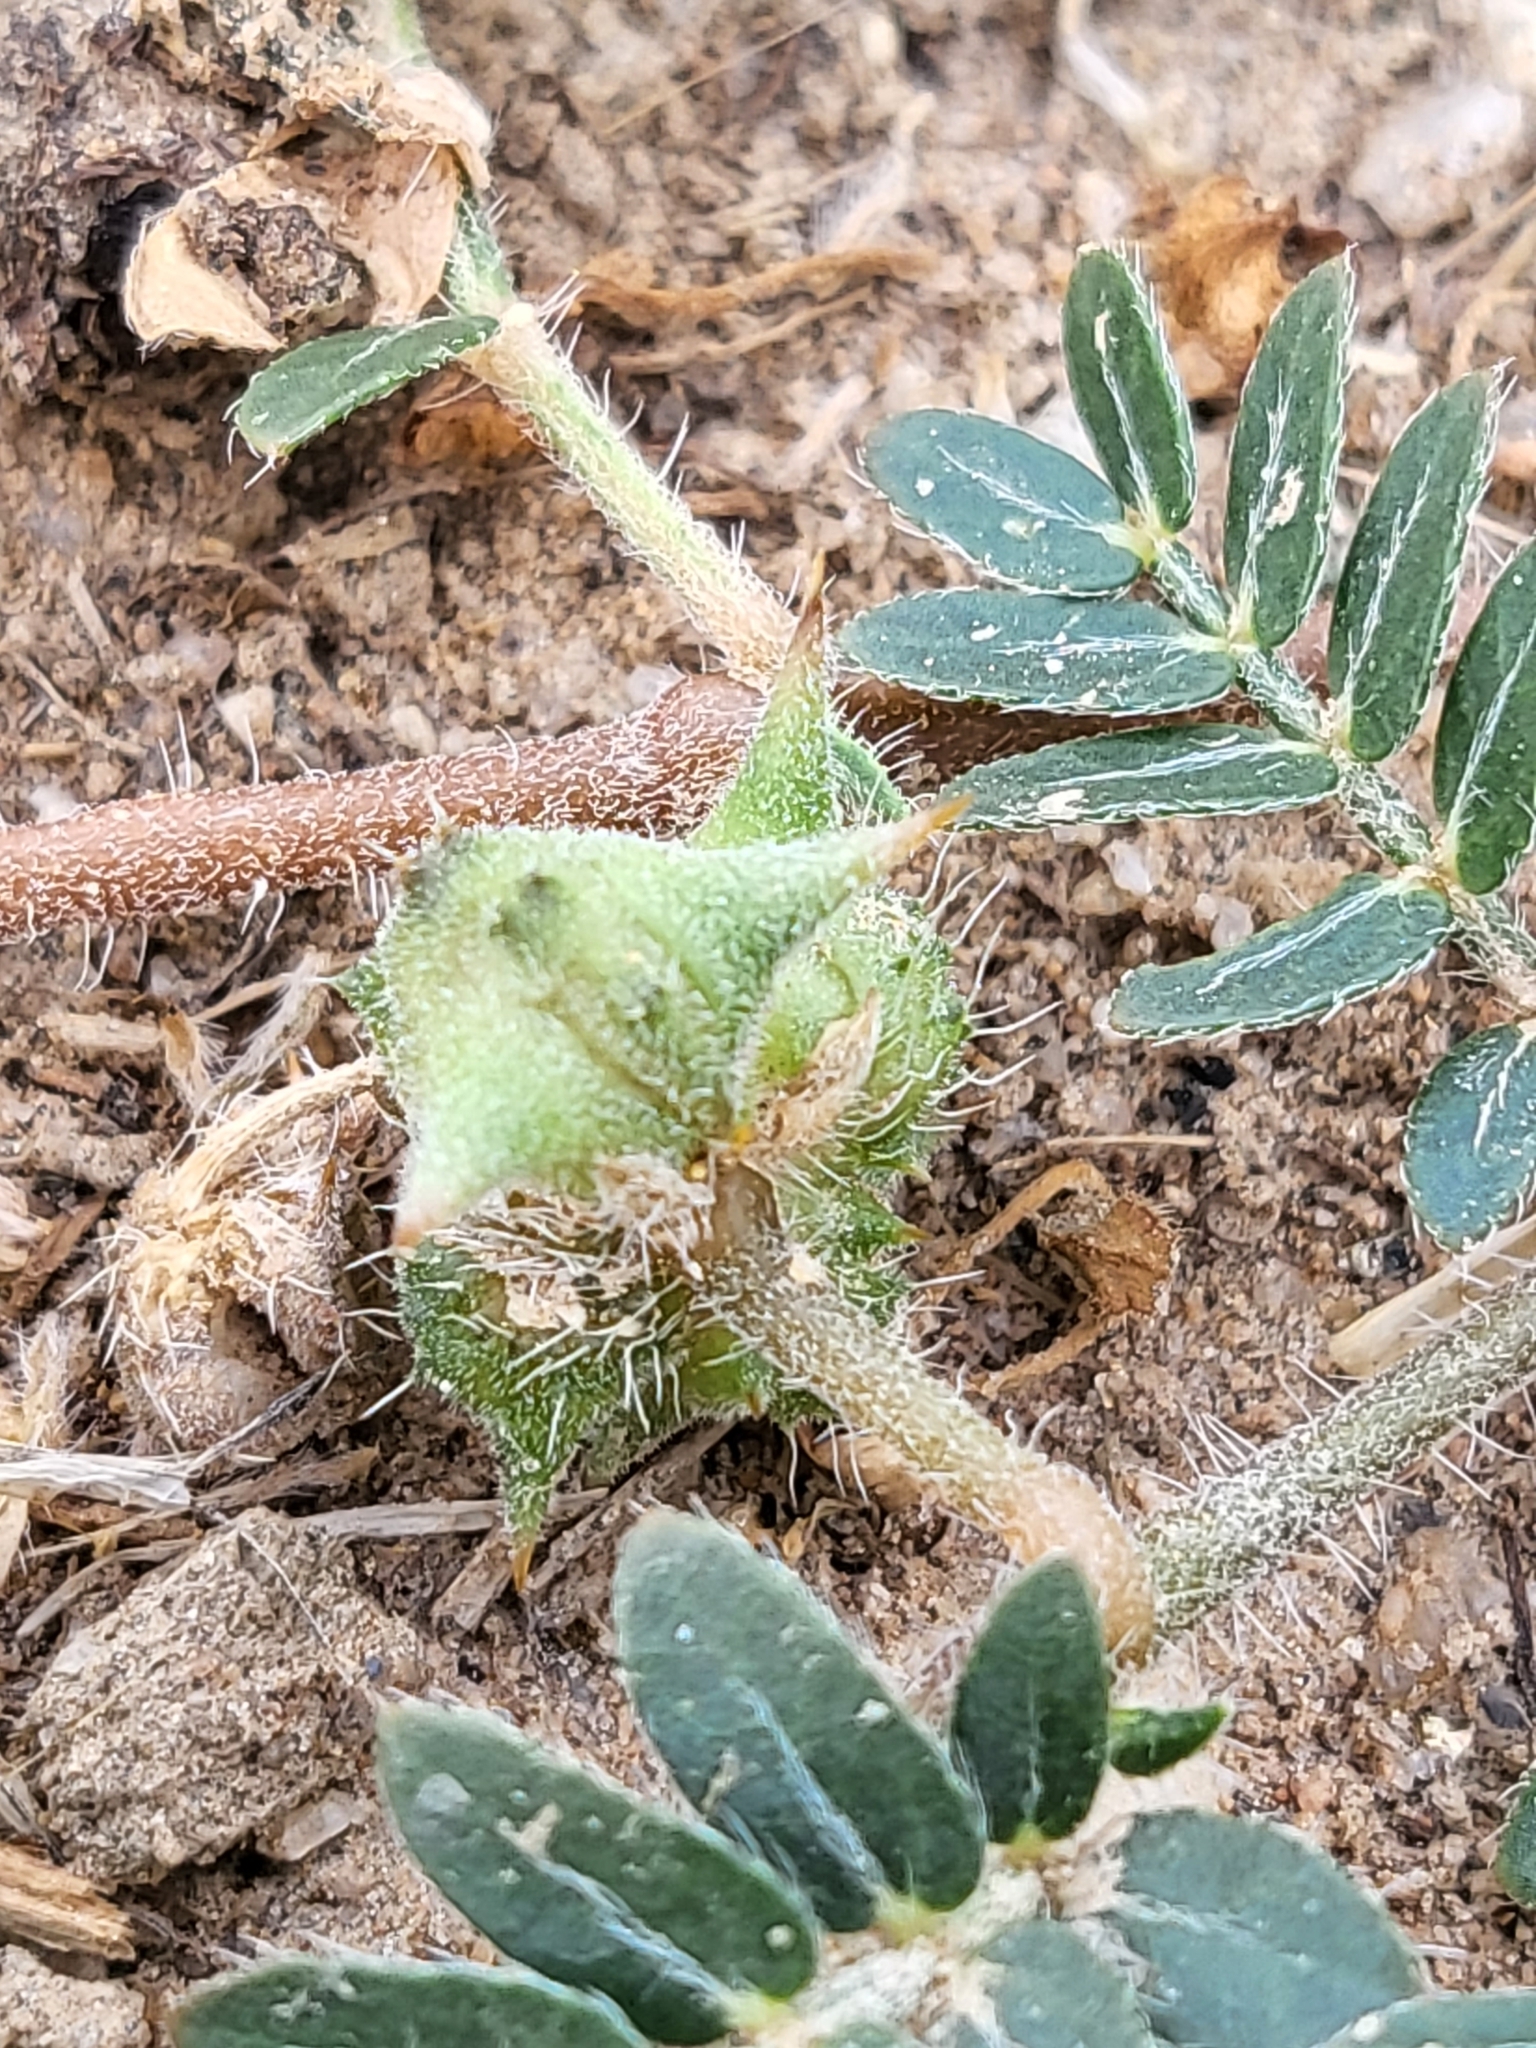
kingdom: Plantae
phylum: Tracheophyta
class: Magnoliopsida
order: Zygophyllales
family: Zygophyllaceae
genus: Tribulus
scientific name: Tribulus terrestris
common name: Puncturevine
